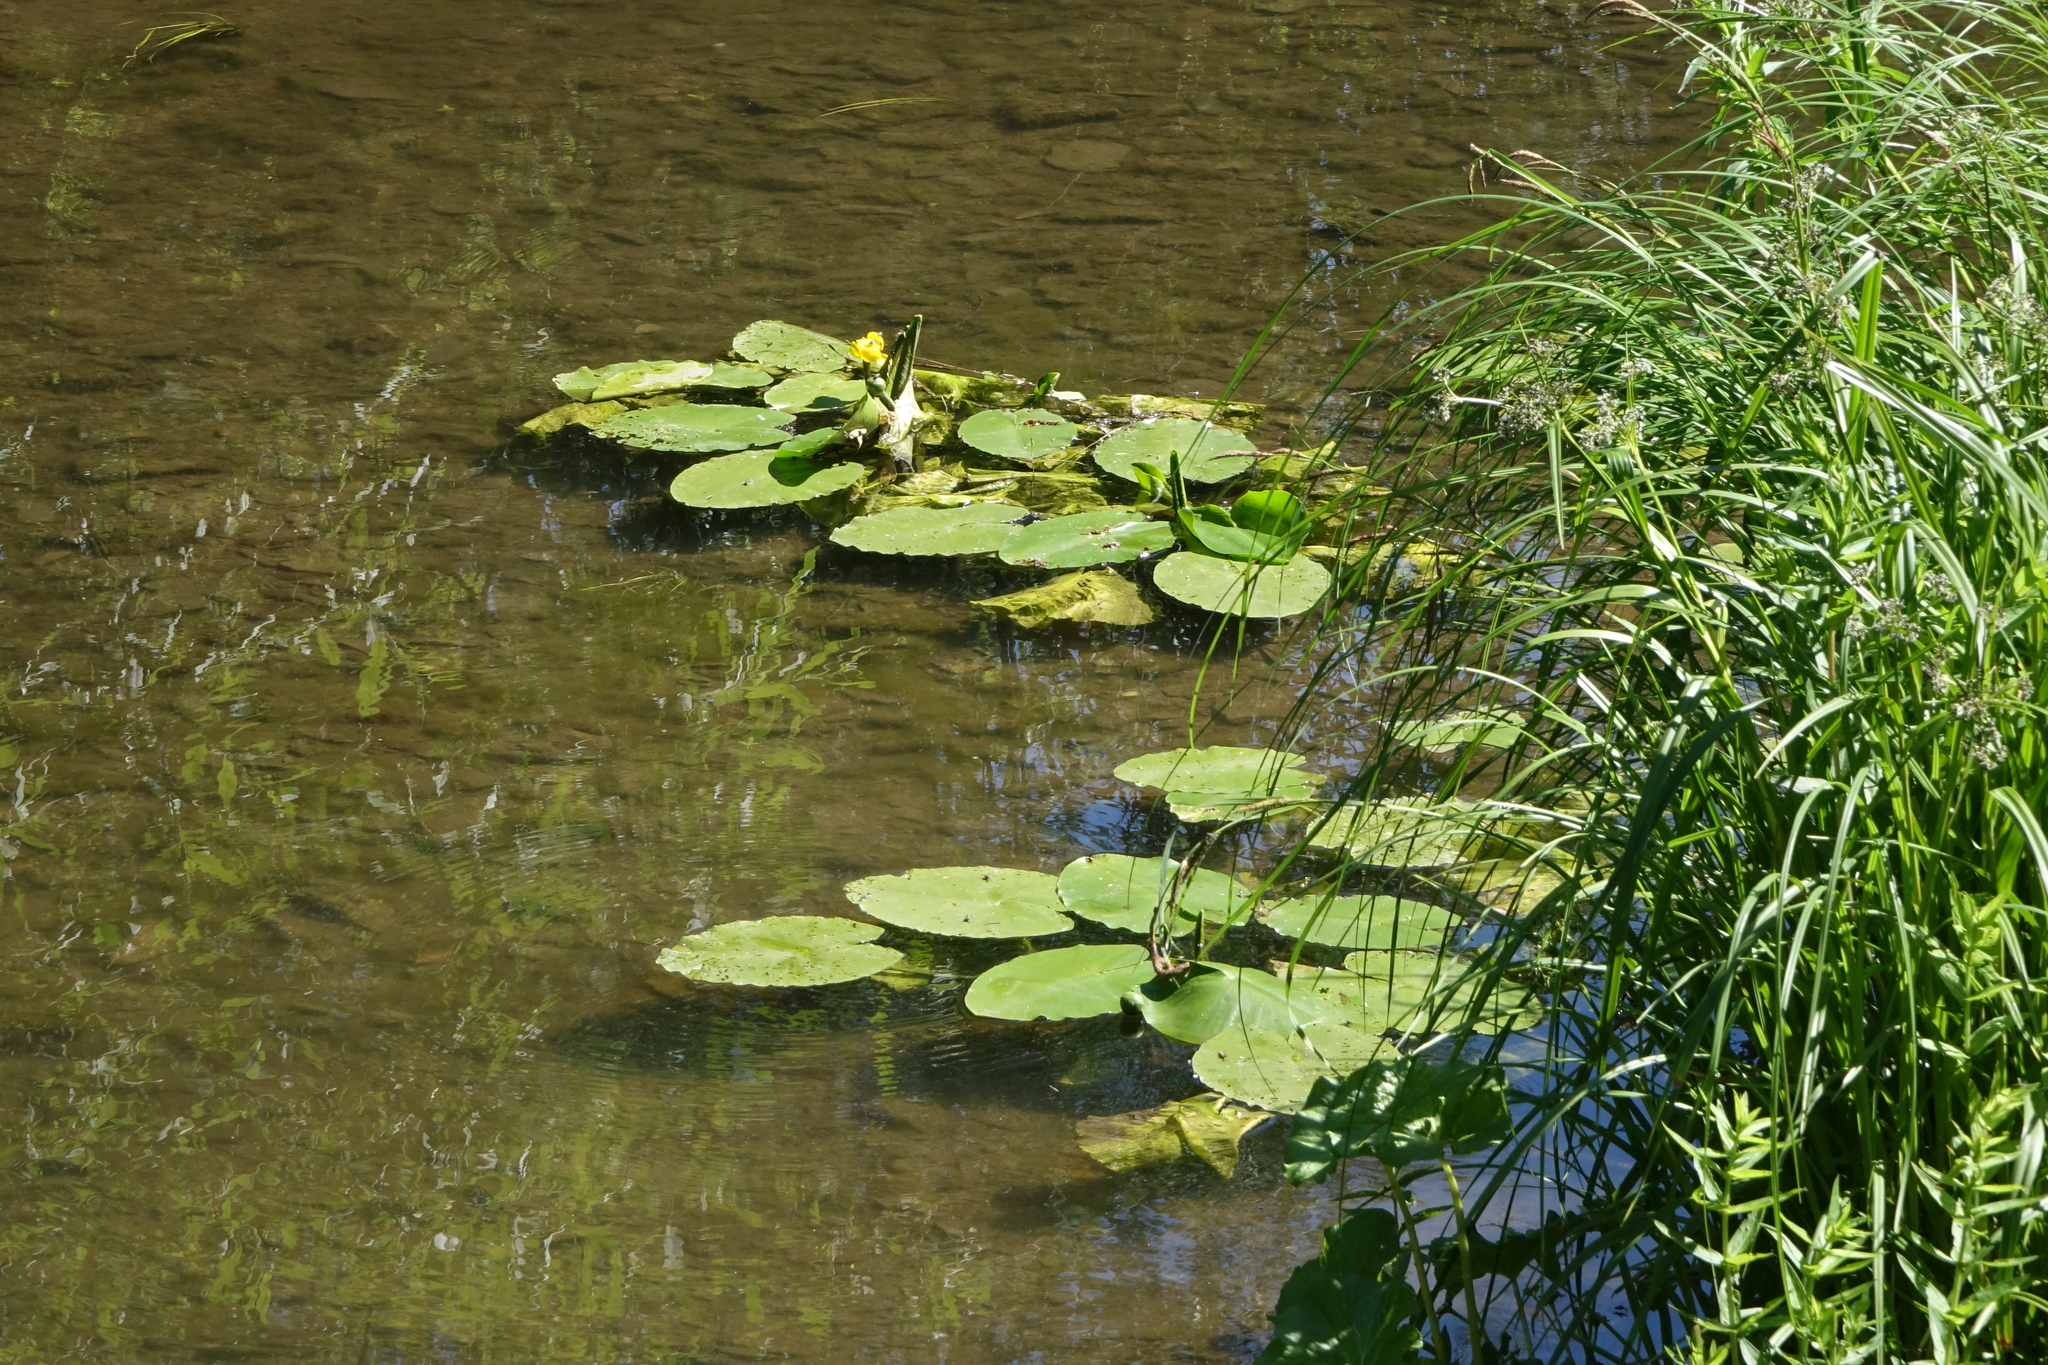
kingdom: Plantae
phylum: Tracheophyta
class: Magnoliopsida
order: Nymphaeales
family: Nymphaeaceae
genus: Nuphar
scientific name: Nuphar lutea
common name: Yellow water-lily
